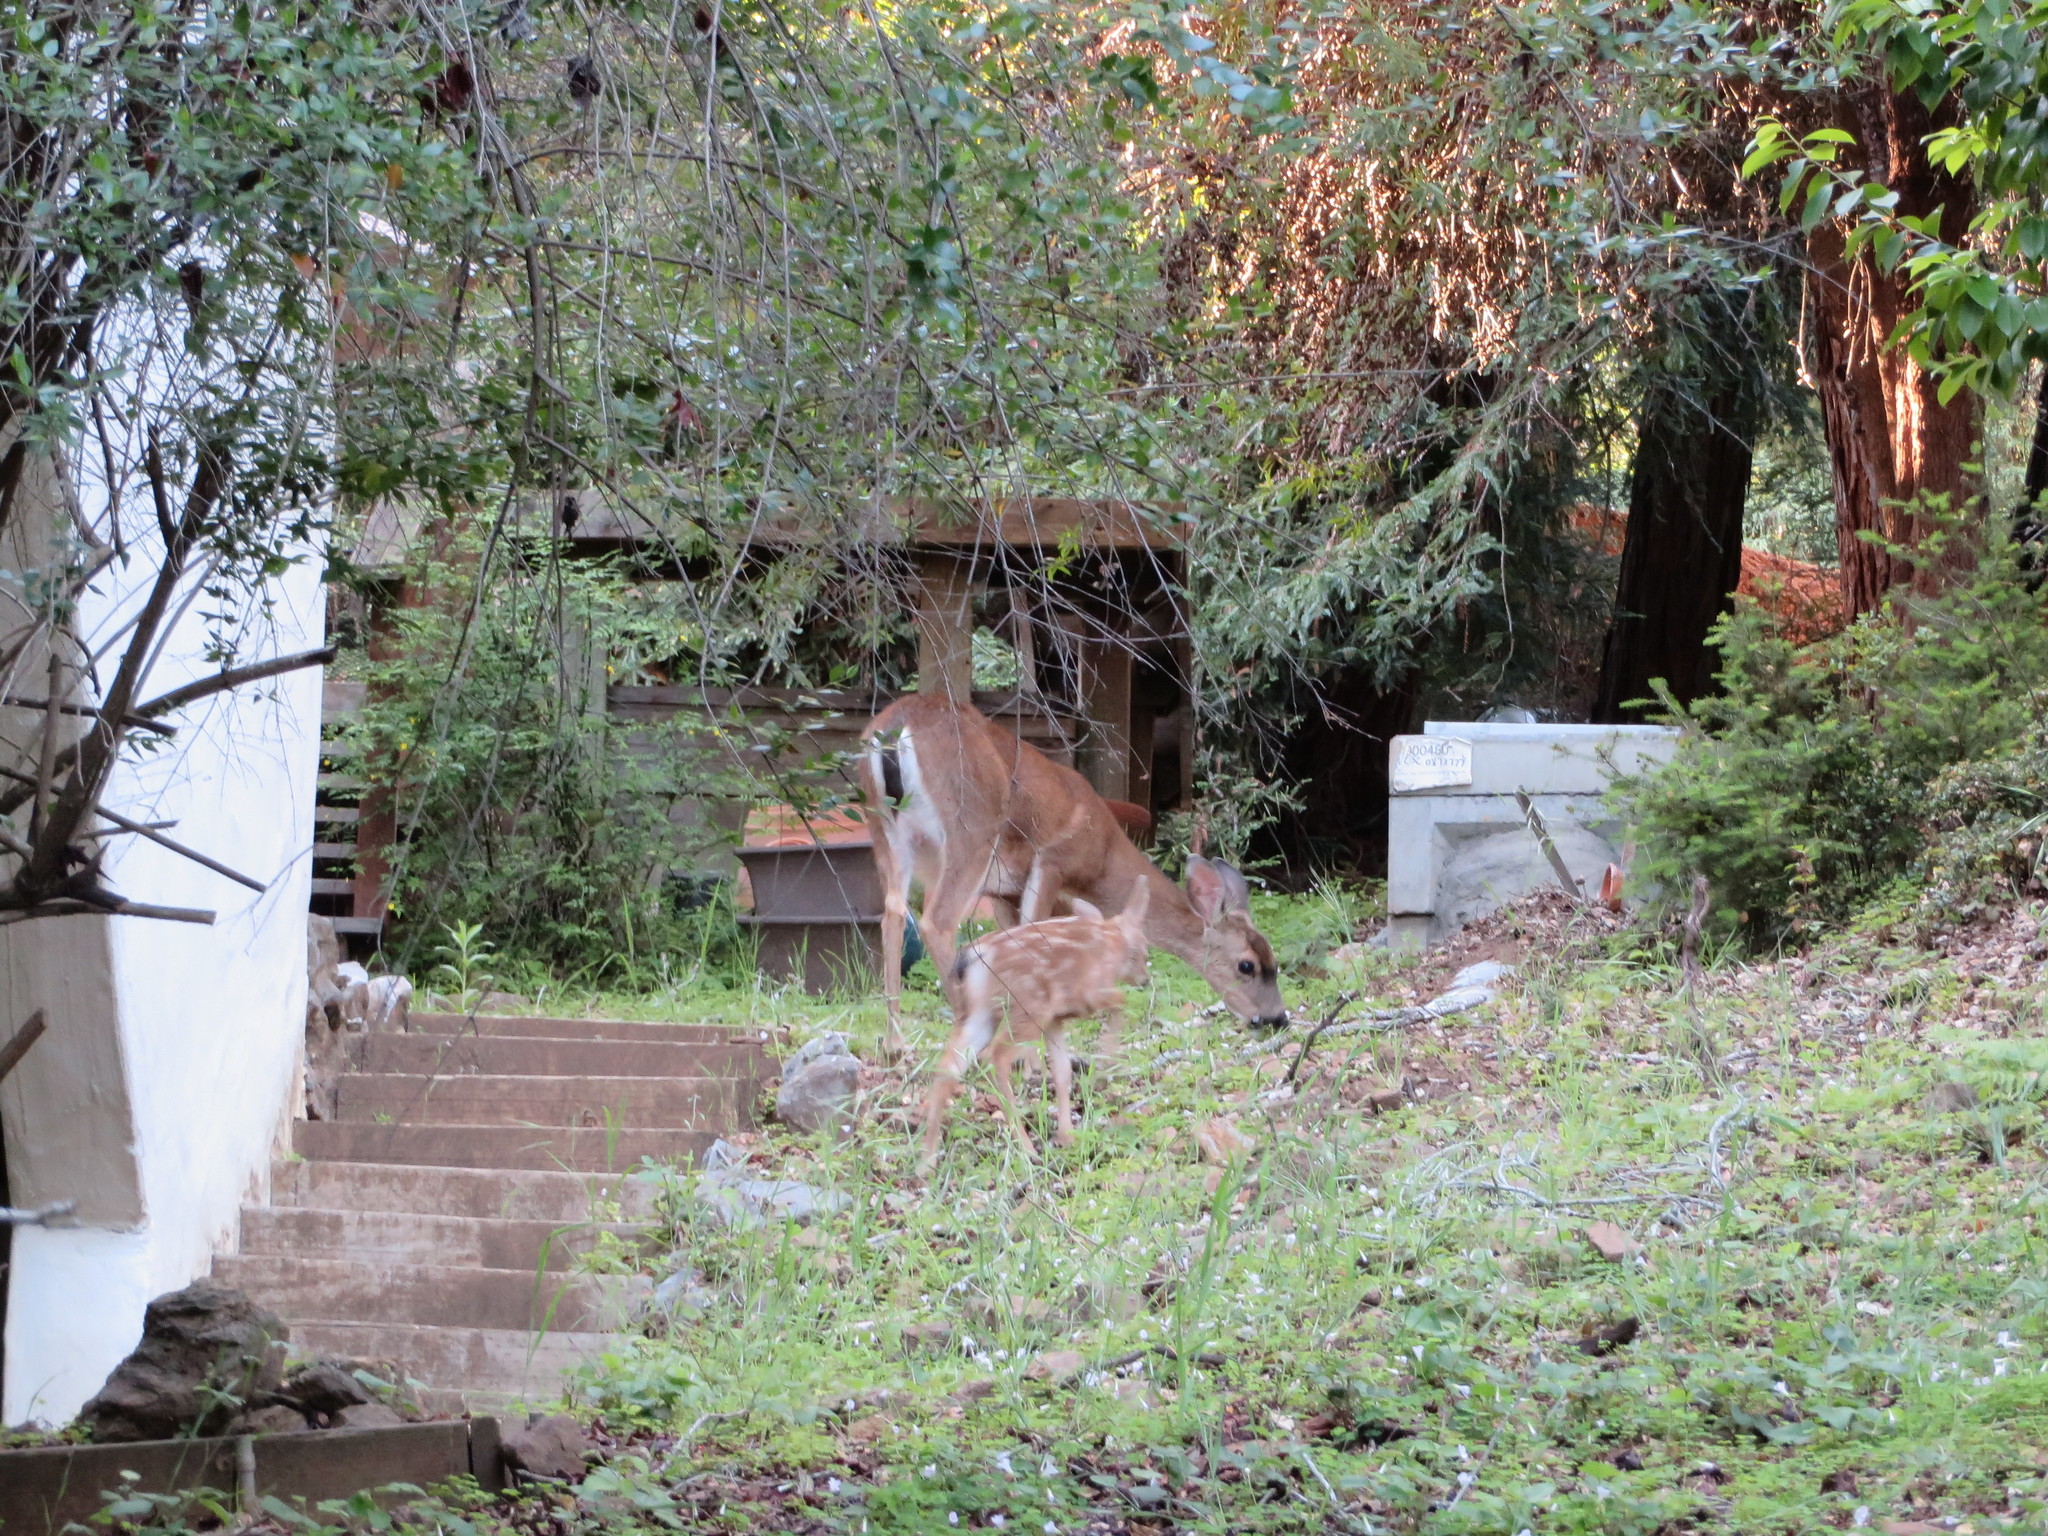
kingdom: Animalia
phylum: Chordata
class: Mammalia
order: Artiodactyla
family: Cervidae
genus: Odocoileus
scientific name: Odocoileus hemionus
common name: Mule deer
